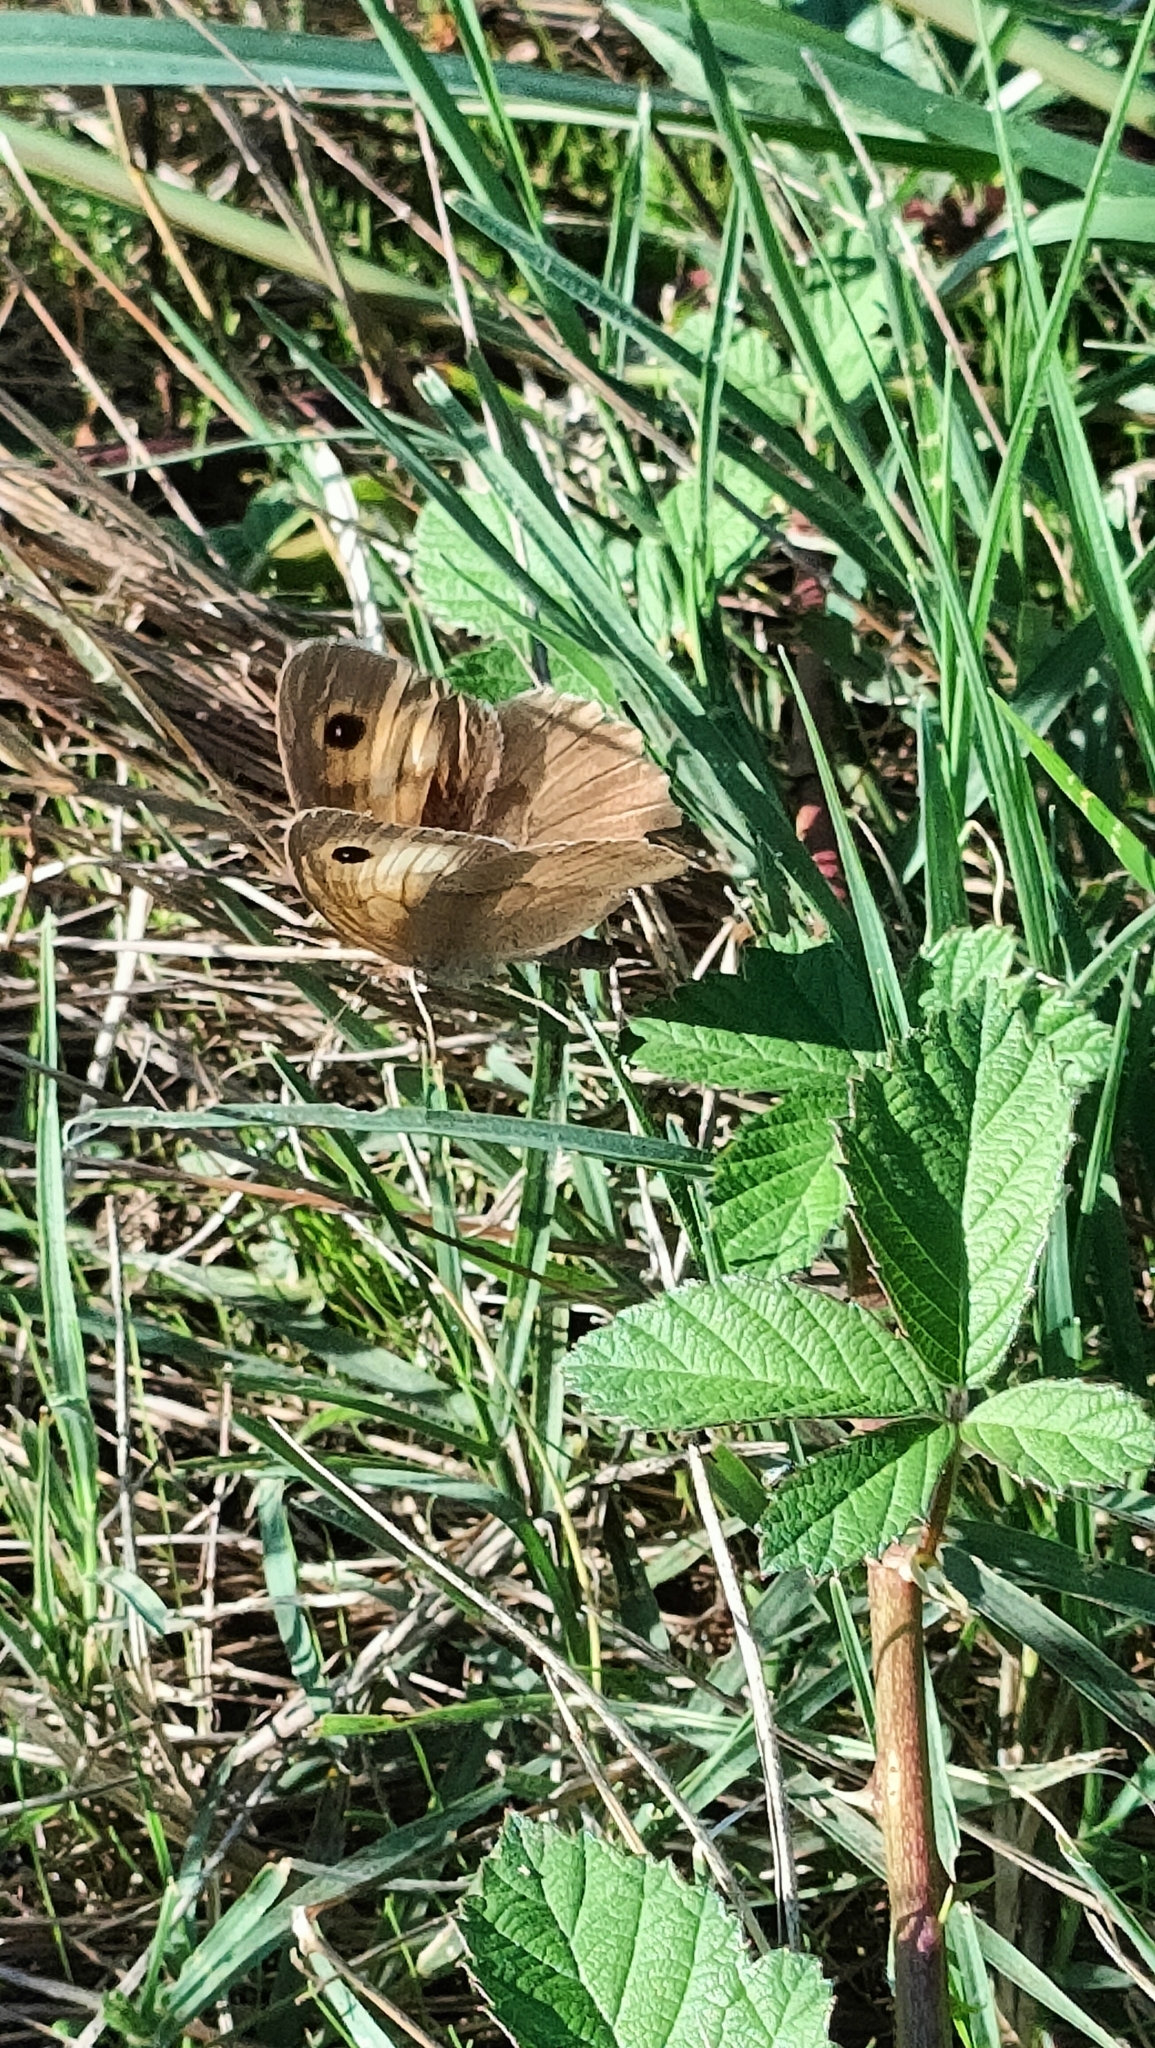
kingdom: Animalia
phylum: Arthropoda
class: Insecta
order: Lepidoptera
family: Nymphalidae
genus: Maniola
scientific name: Maniola jurtina
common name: Meadow brown
